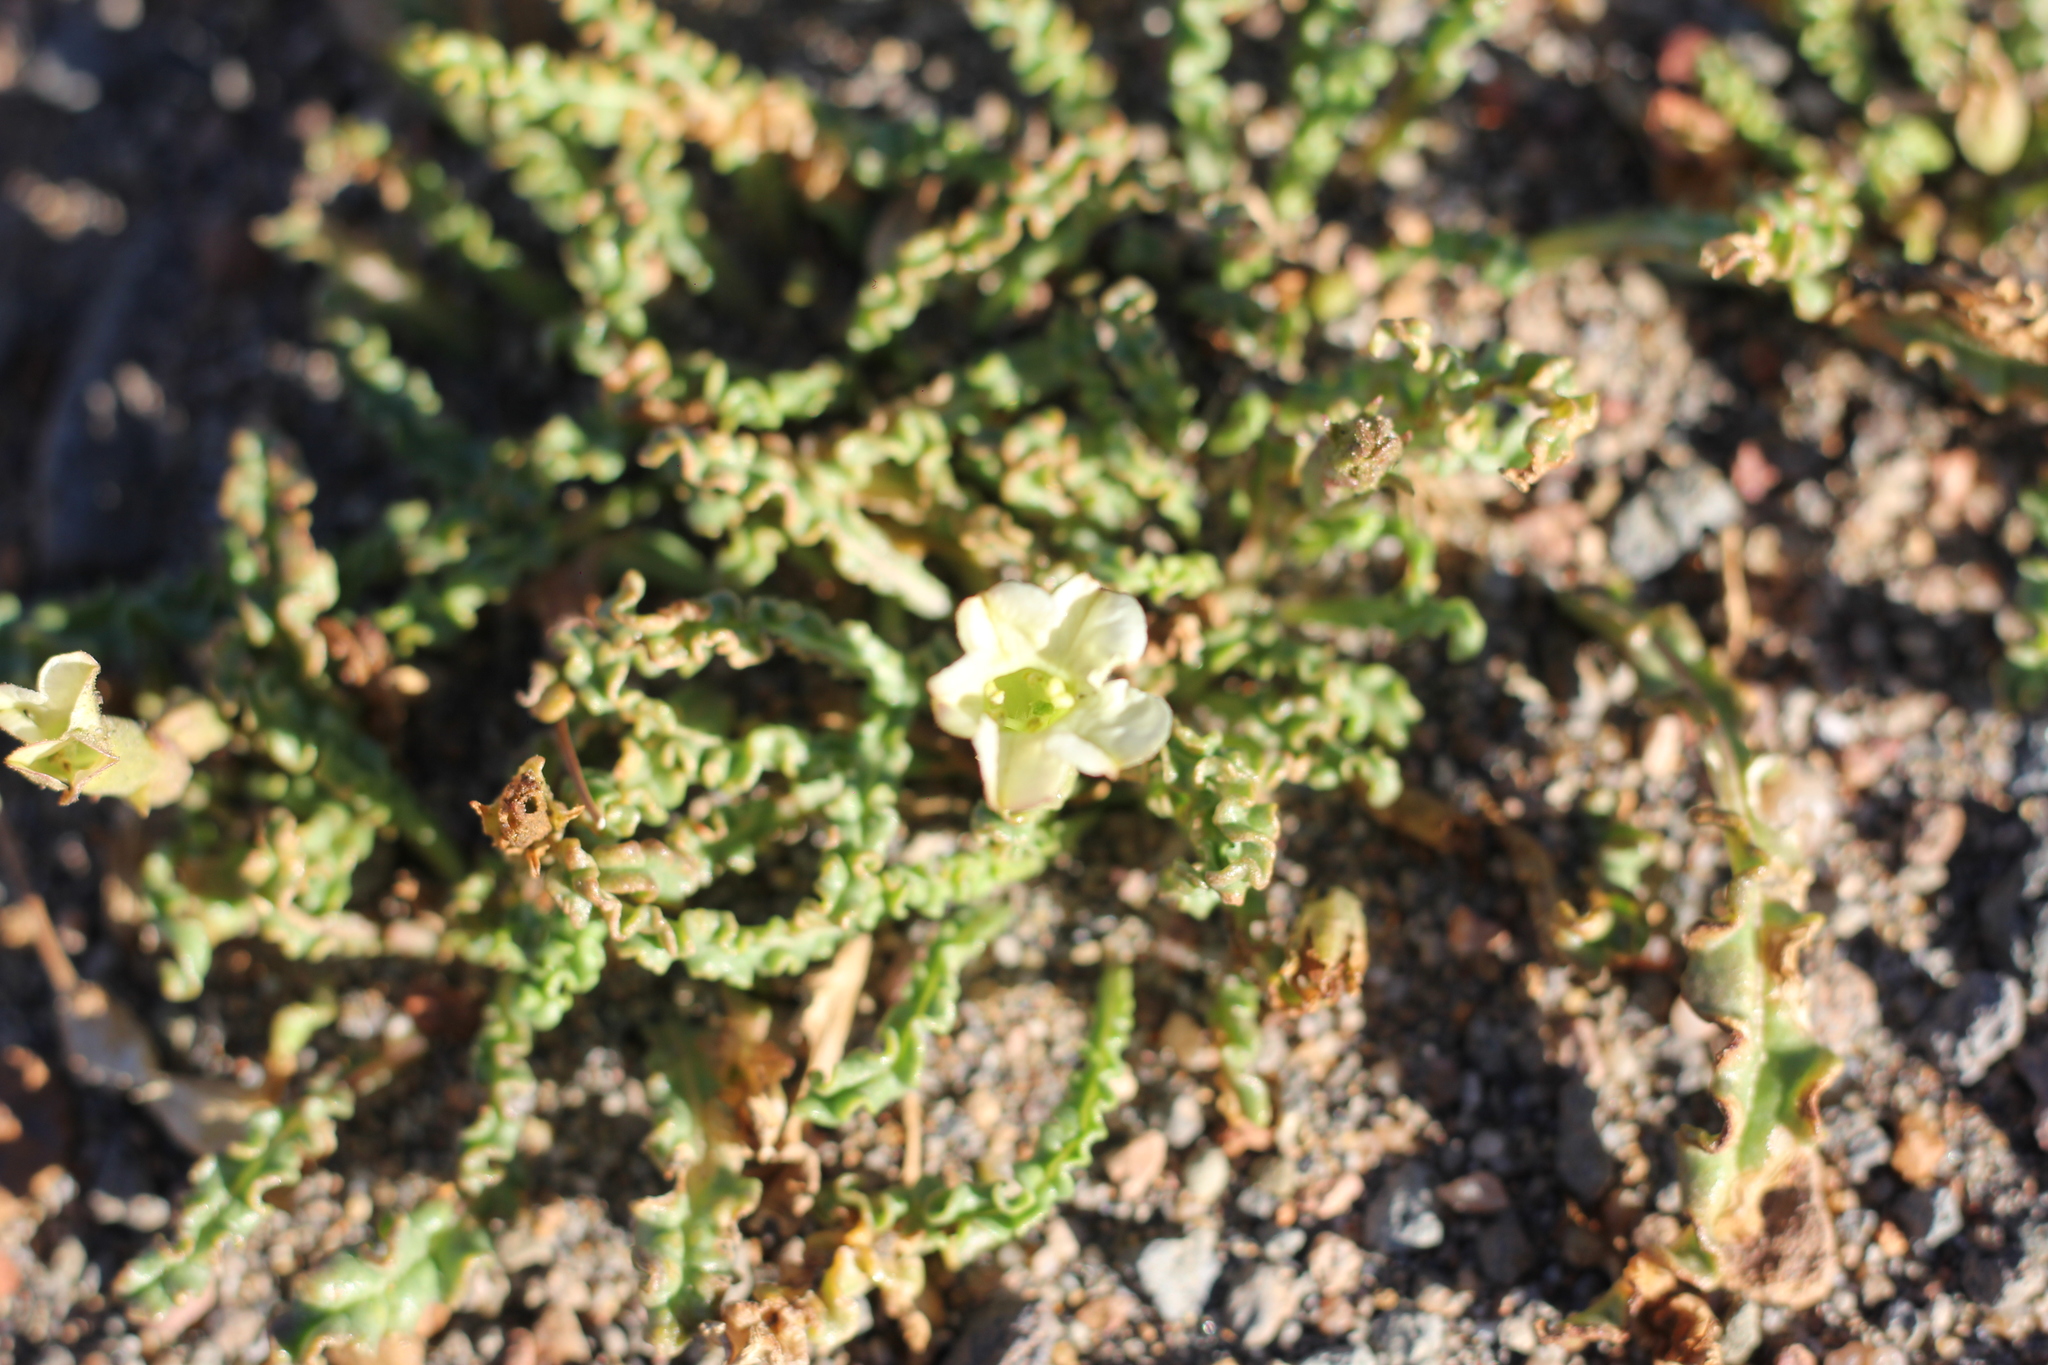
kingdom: Plantae
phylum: Tracheophyta
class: Magnoliopsida
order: Solanales
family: Solanaceae
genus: Nicotiana
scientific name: Nicotiana acaulis
